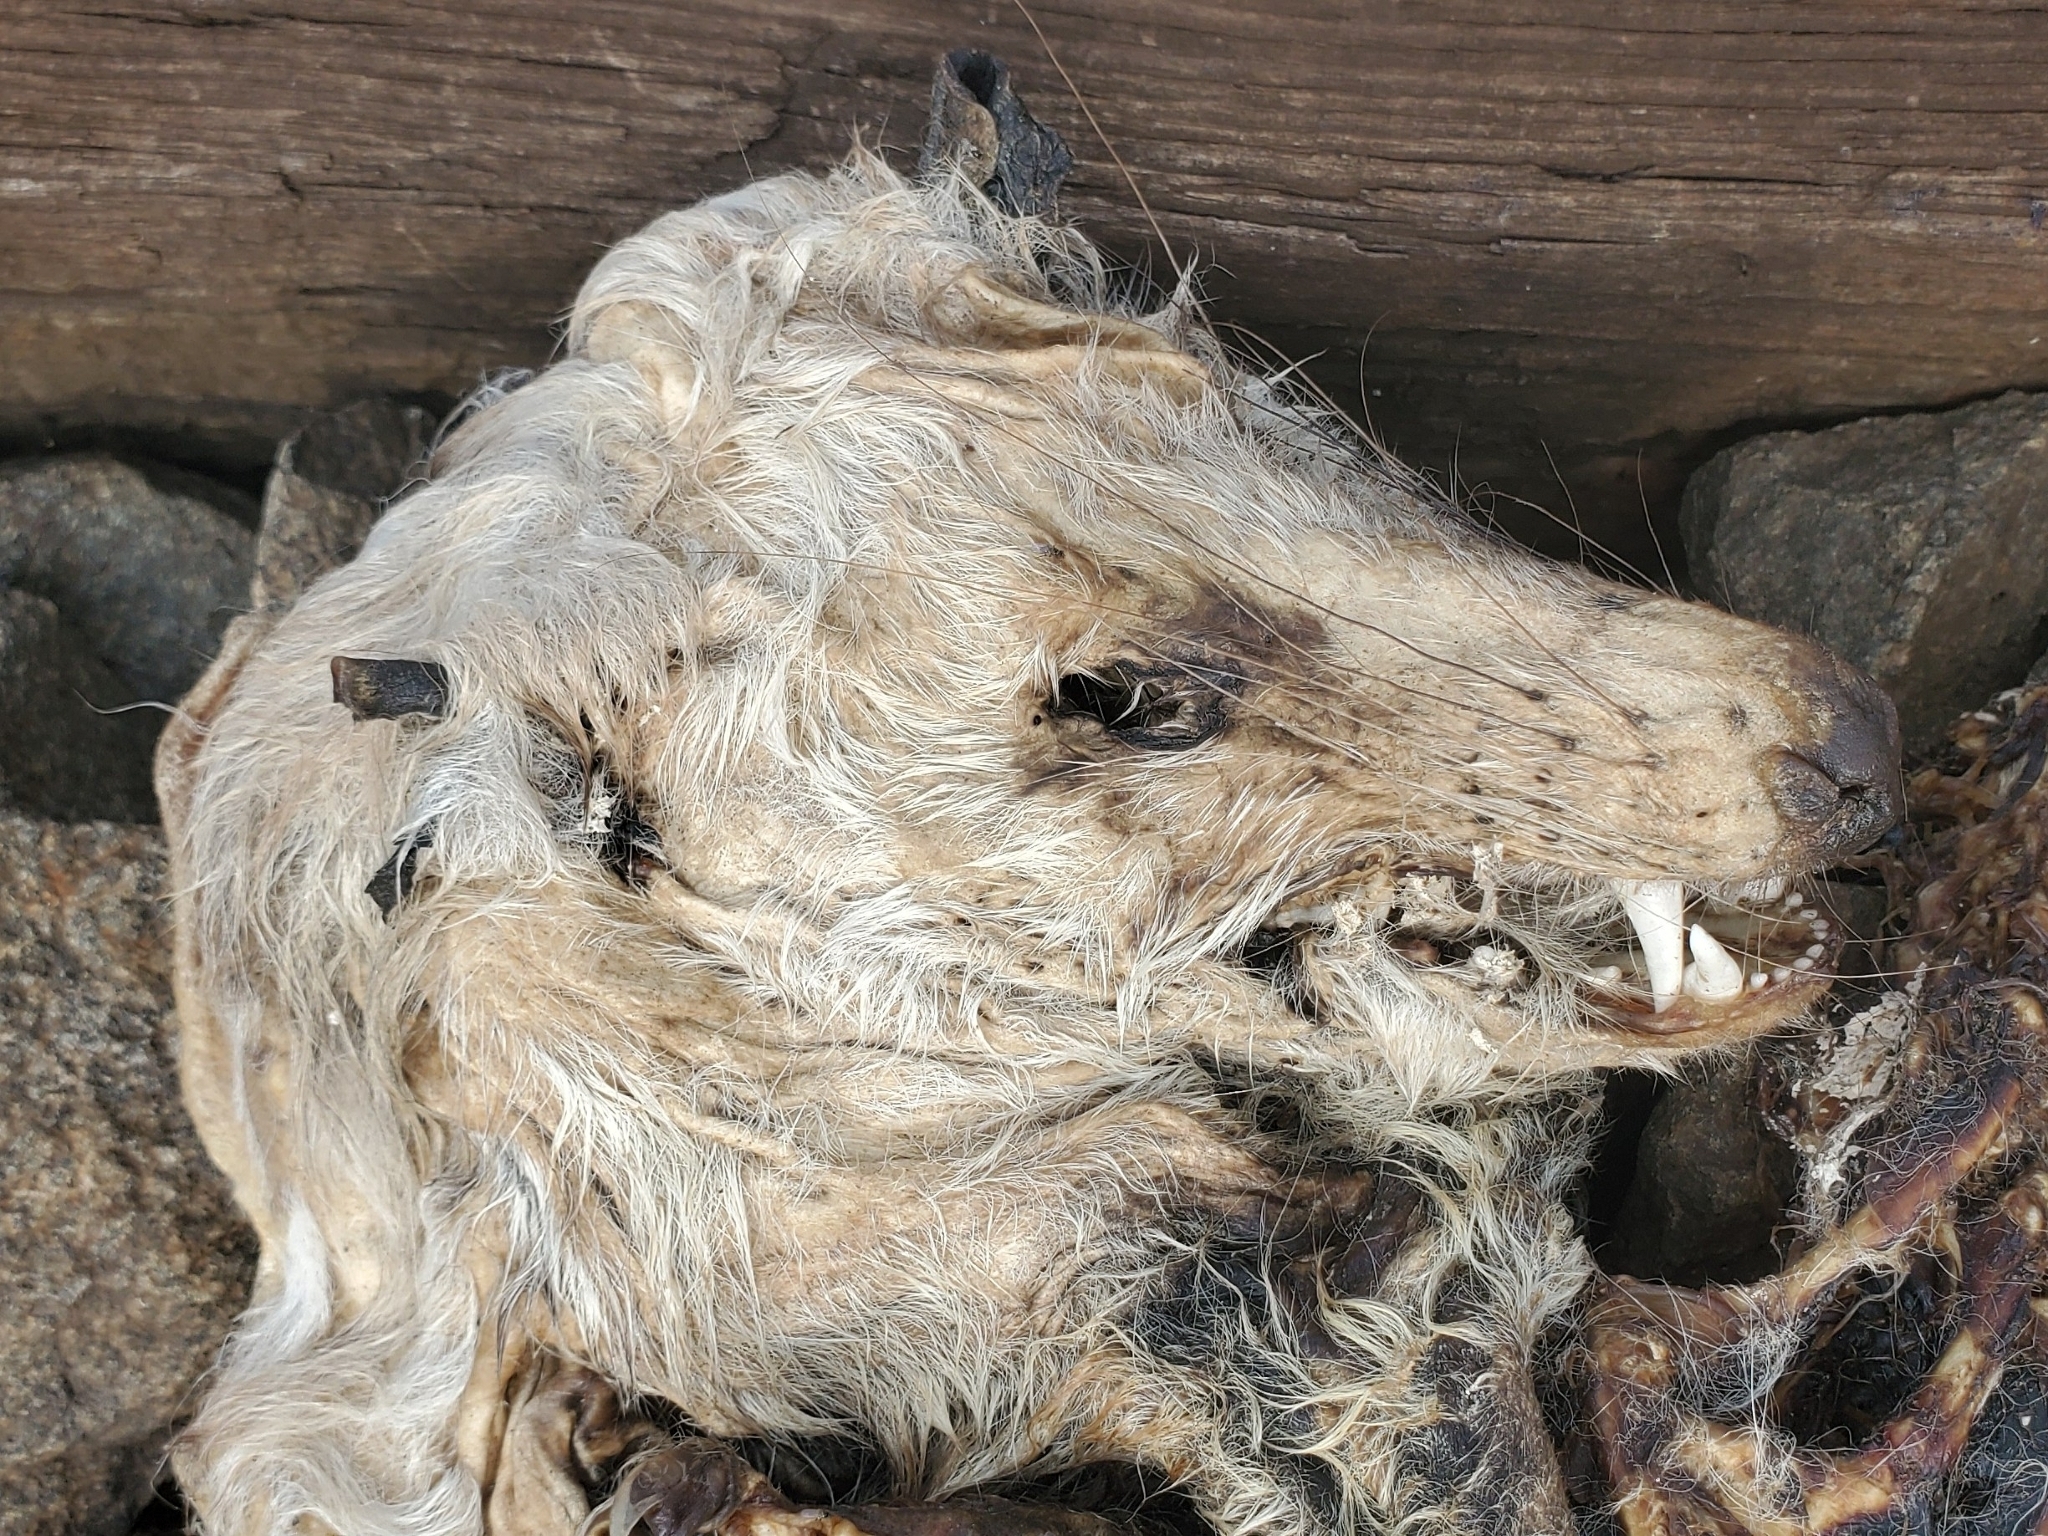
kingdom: Animalia
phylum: Chordata
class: Mammalia
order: Didelphimorphia
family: Didelphidae
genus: Didelphis
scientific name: Didelphis virginiana
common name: Virginia opossum
